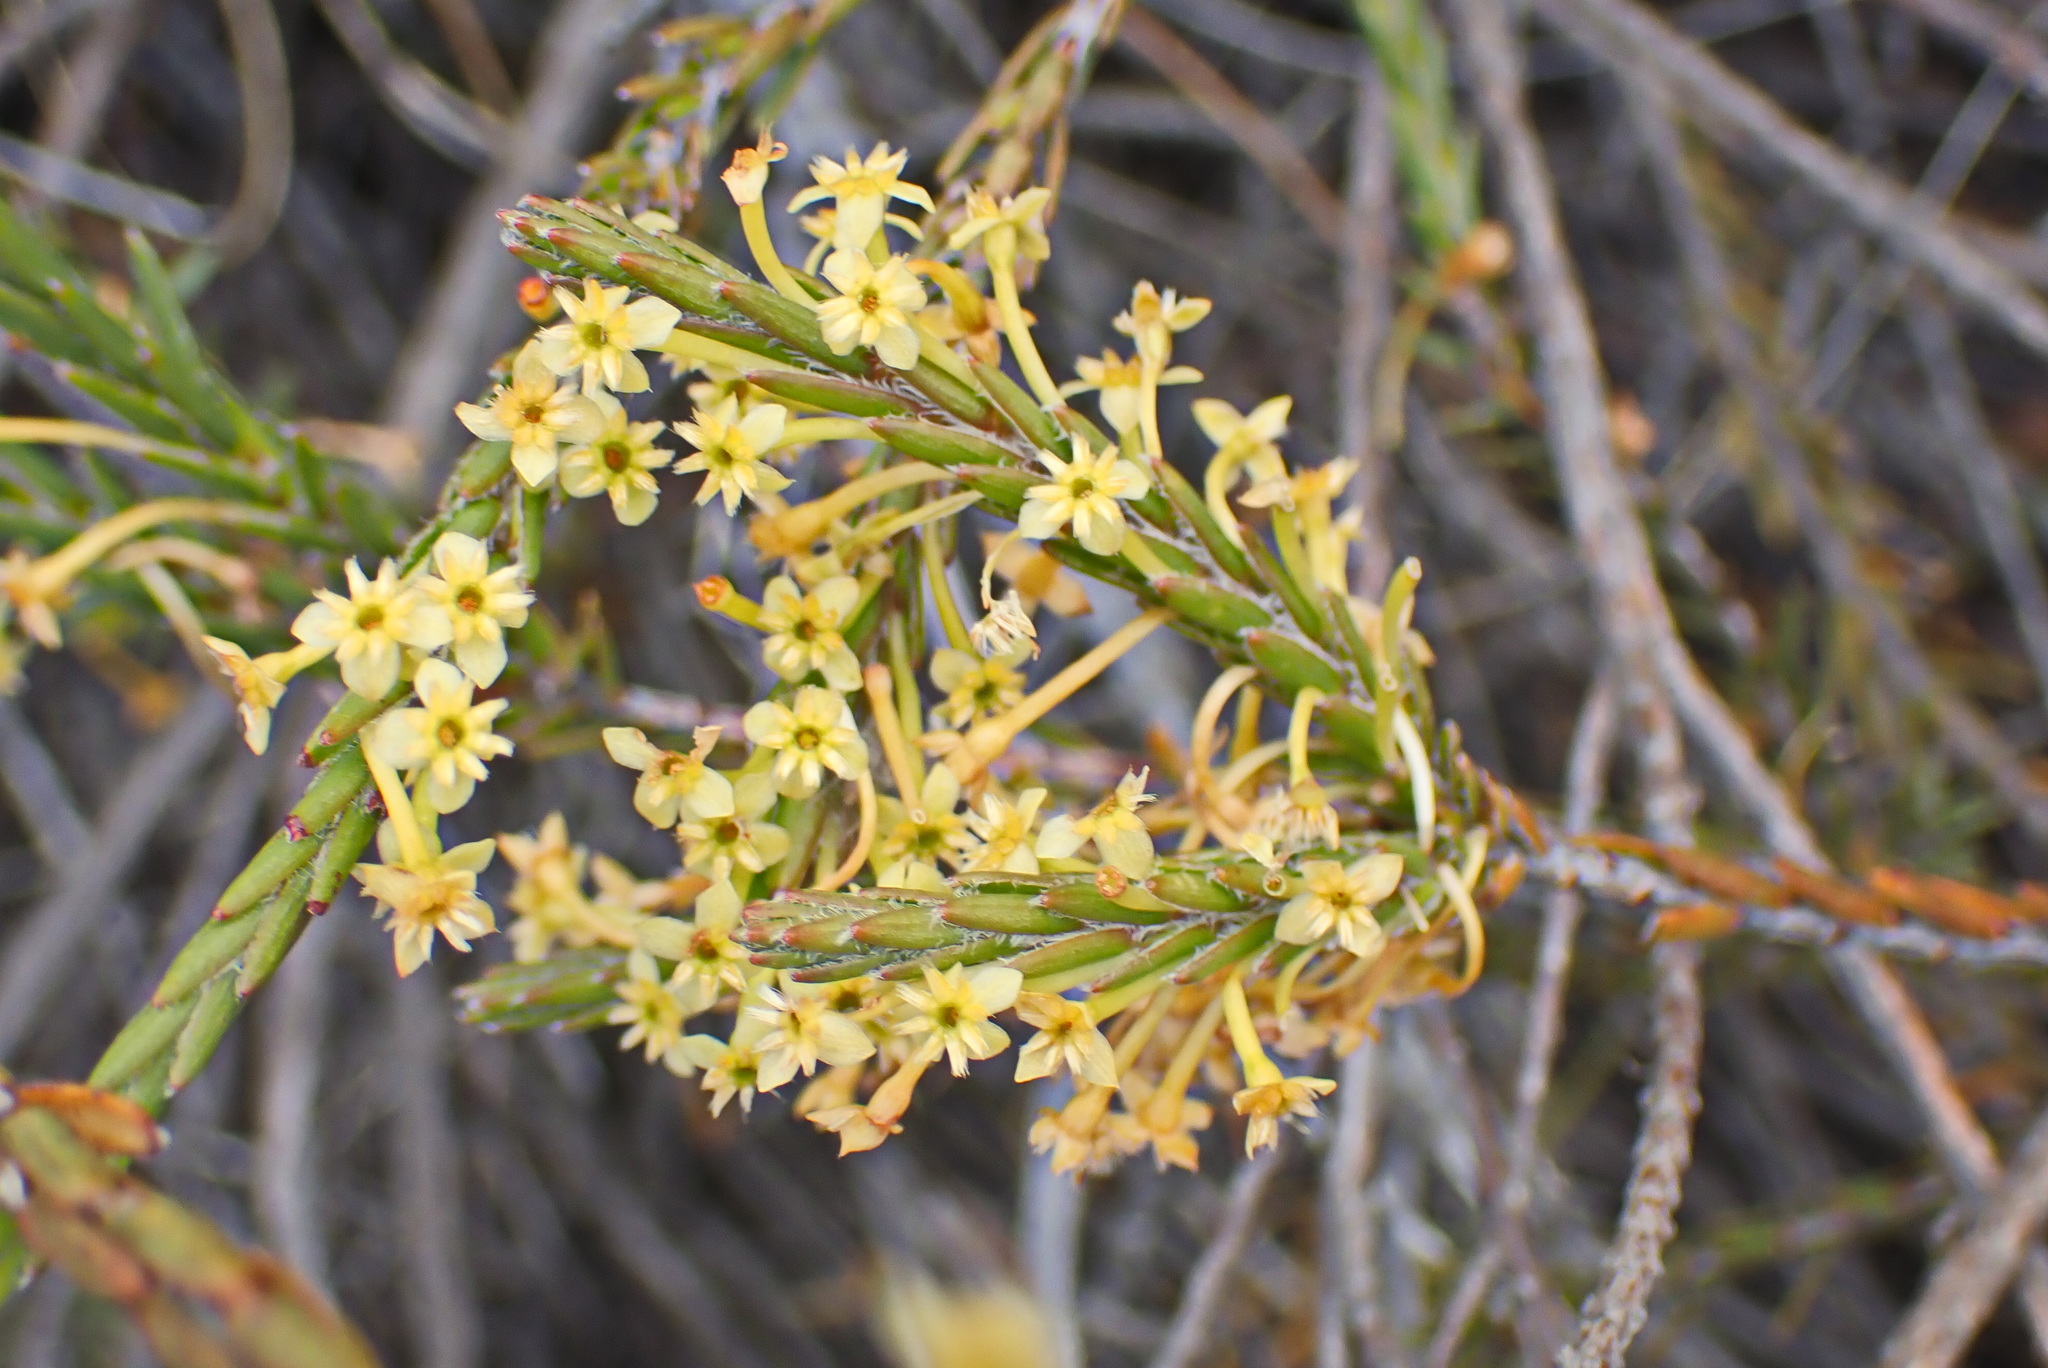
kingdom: Plantae
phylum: Tracheophyta
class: Magnoliopsida
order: Malvales
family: Thymelaeaceae
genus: Struthiola
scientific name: Struthiola eckloniana
